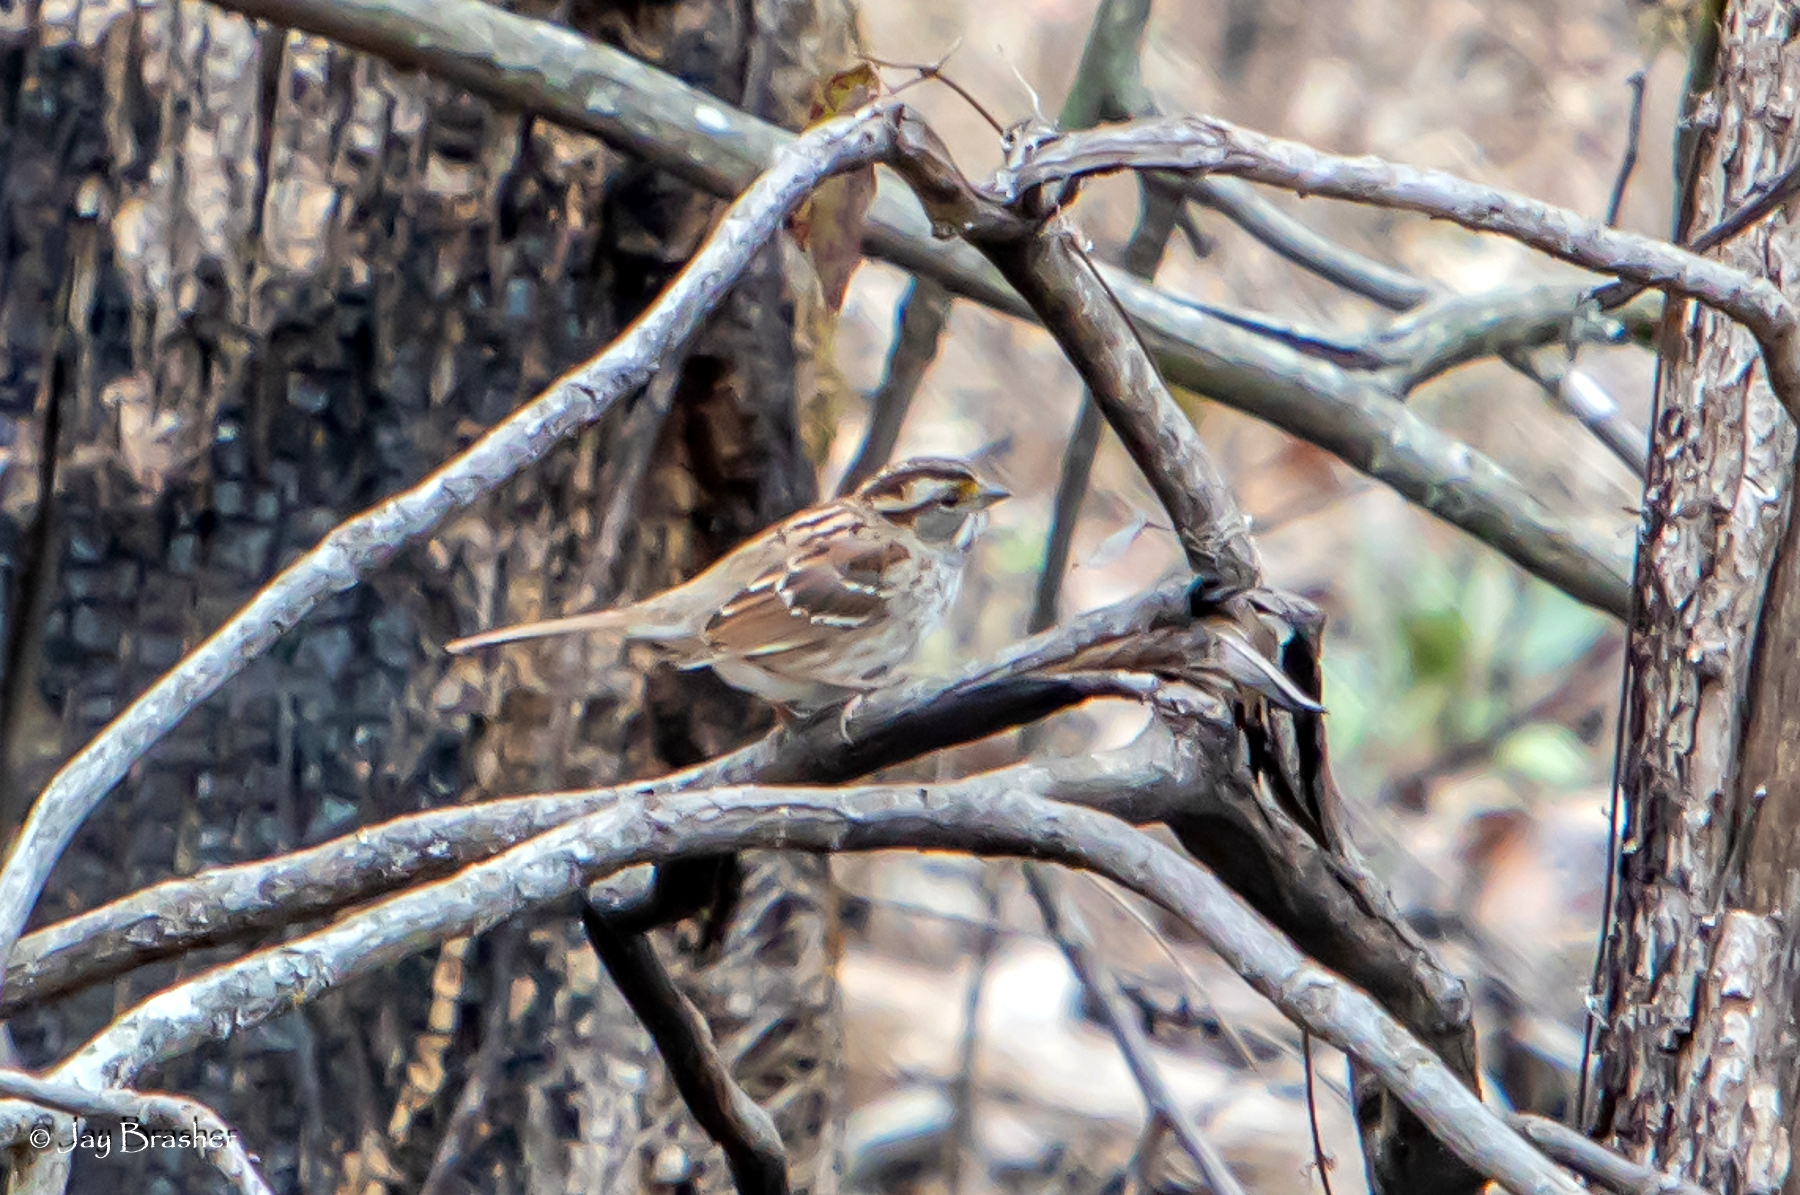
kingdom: Animalia
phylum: Chordata
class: Aves
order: Passeriformes
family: Passerellidae
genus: Zonotrichia
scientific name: Zonotrichia albicollis
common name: White-throated sparrow
